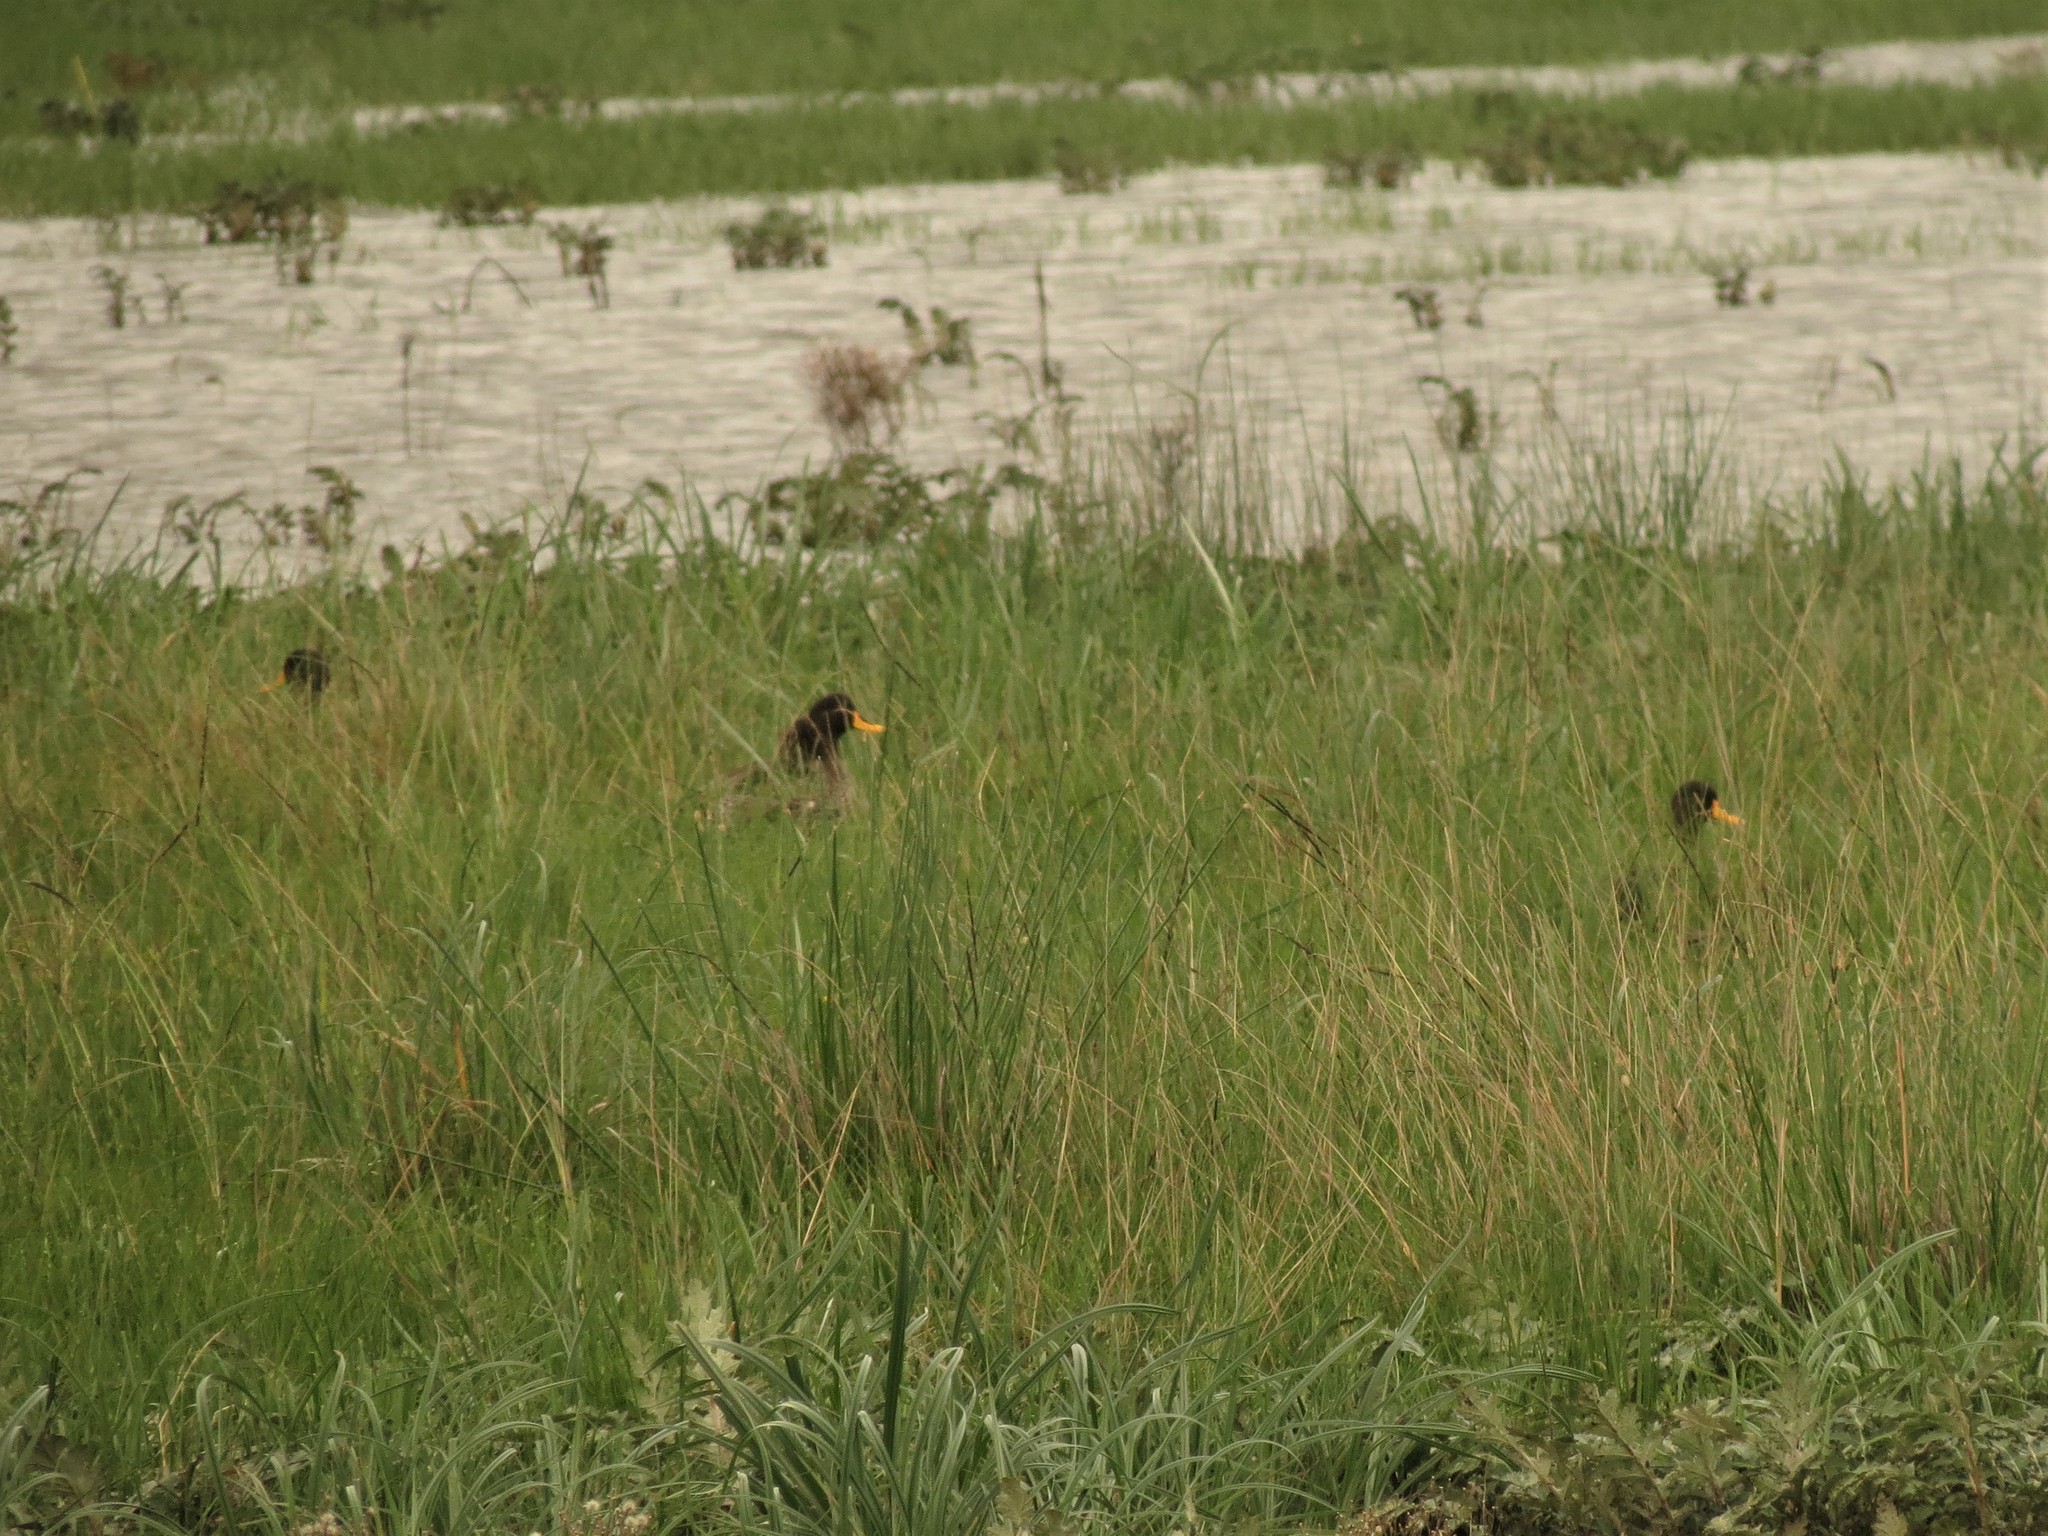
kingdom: Animalia
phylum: Chordata
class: Aves
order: Anseriformes
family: Anatidae
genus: Anas
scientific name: Anas undulata
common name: Yellow-billed duck
